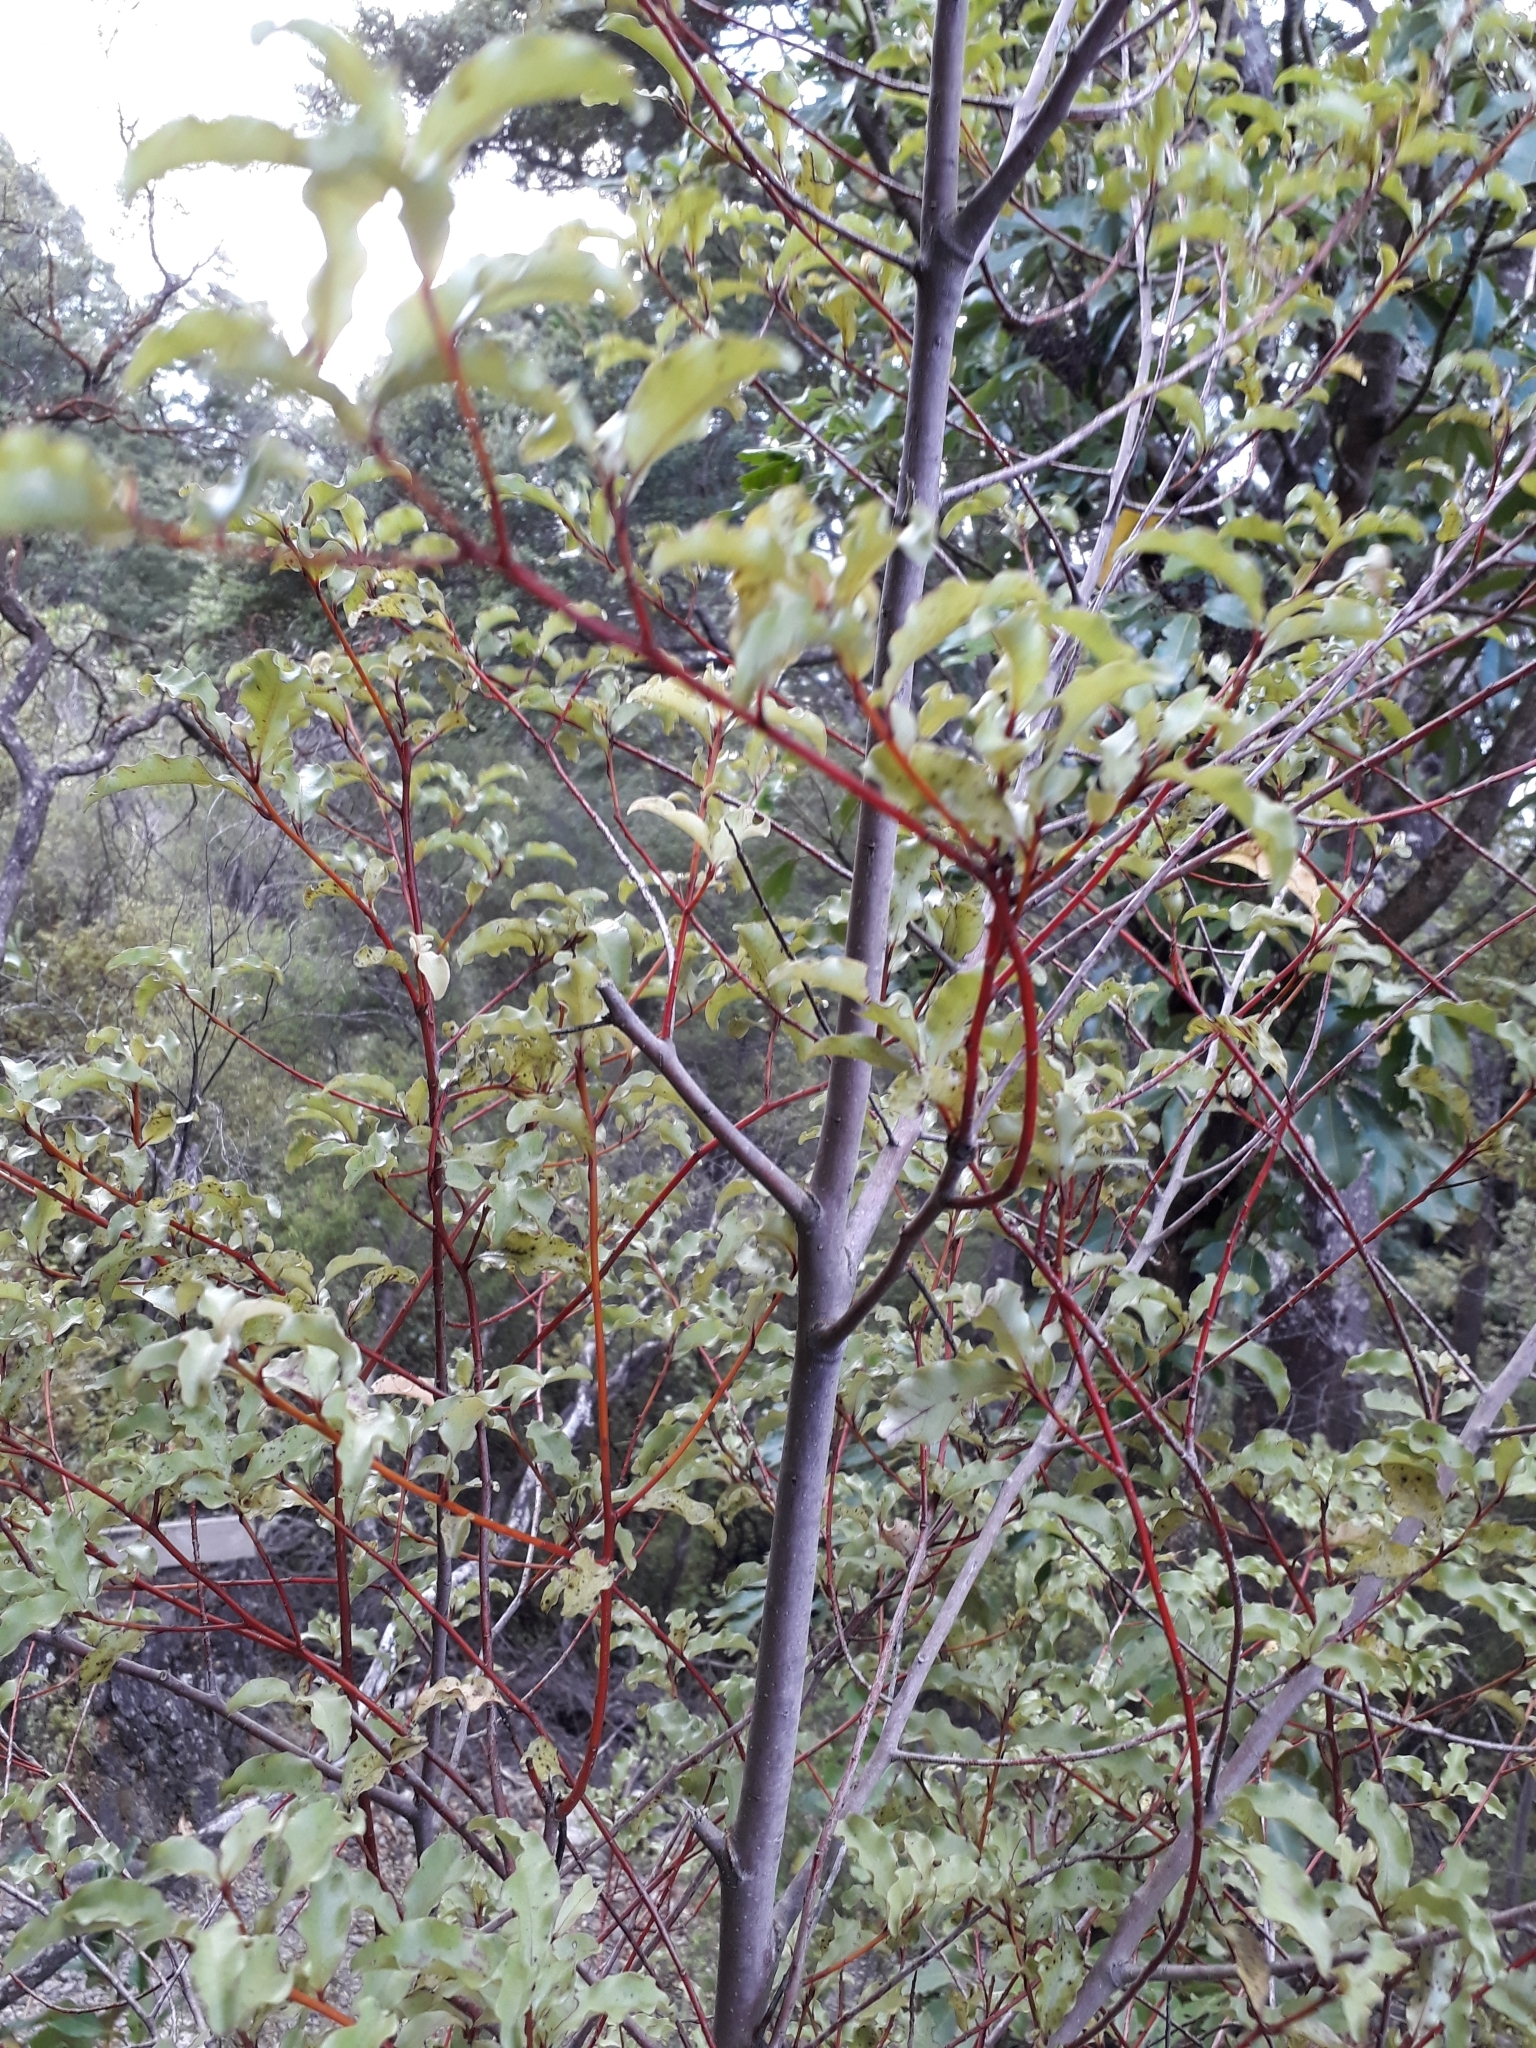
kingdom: Plantae
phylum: Tracheophyta
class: Magnoliopsida
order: Ericales
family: Primulaceae
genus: Myrsine
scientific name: Myrsine australis
